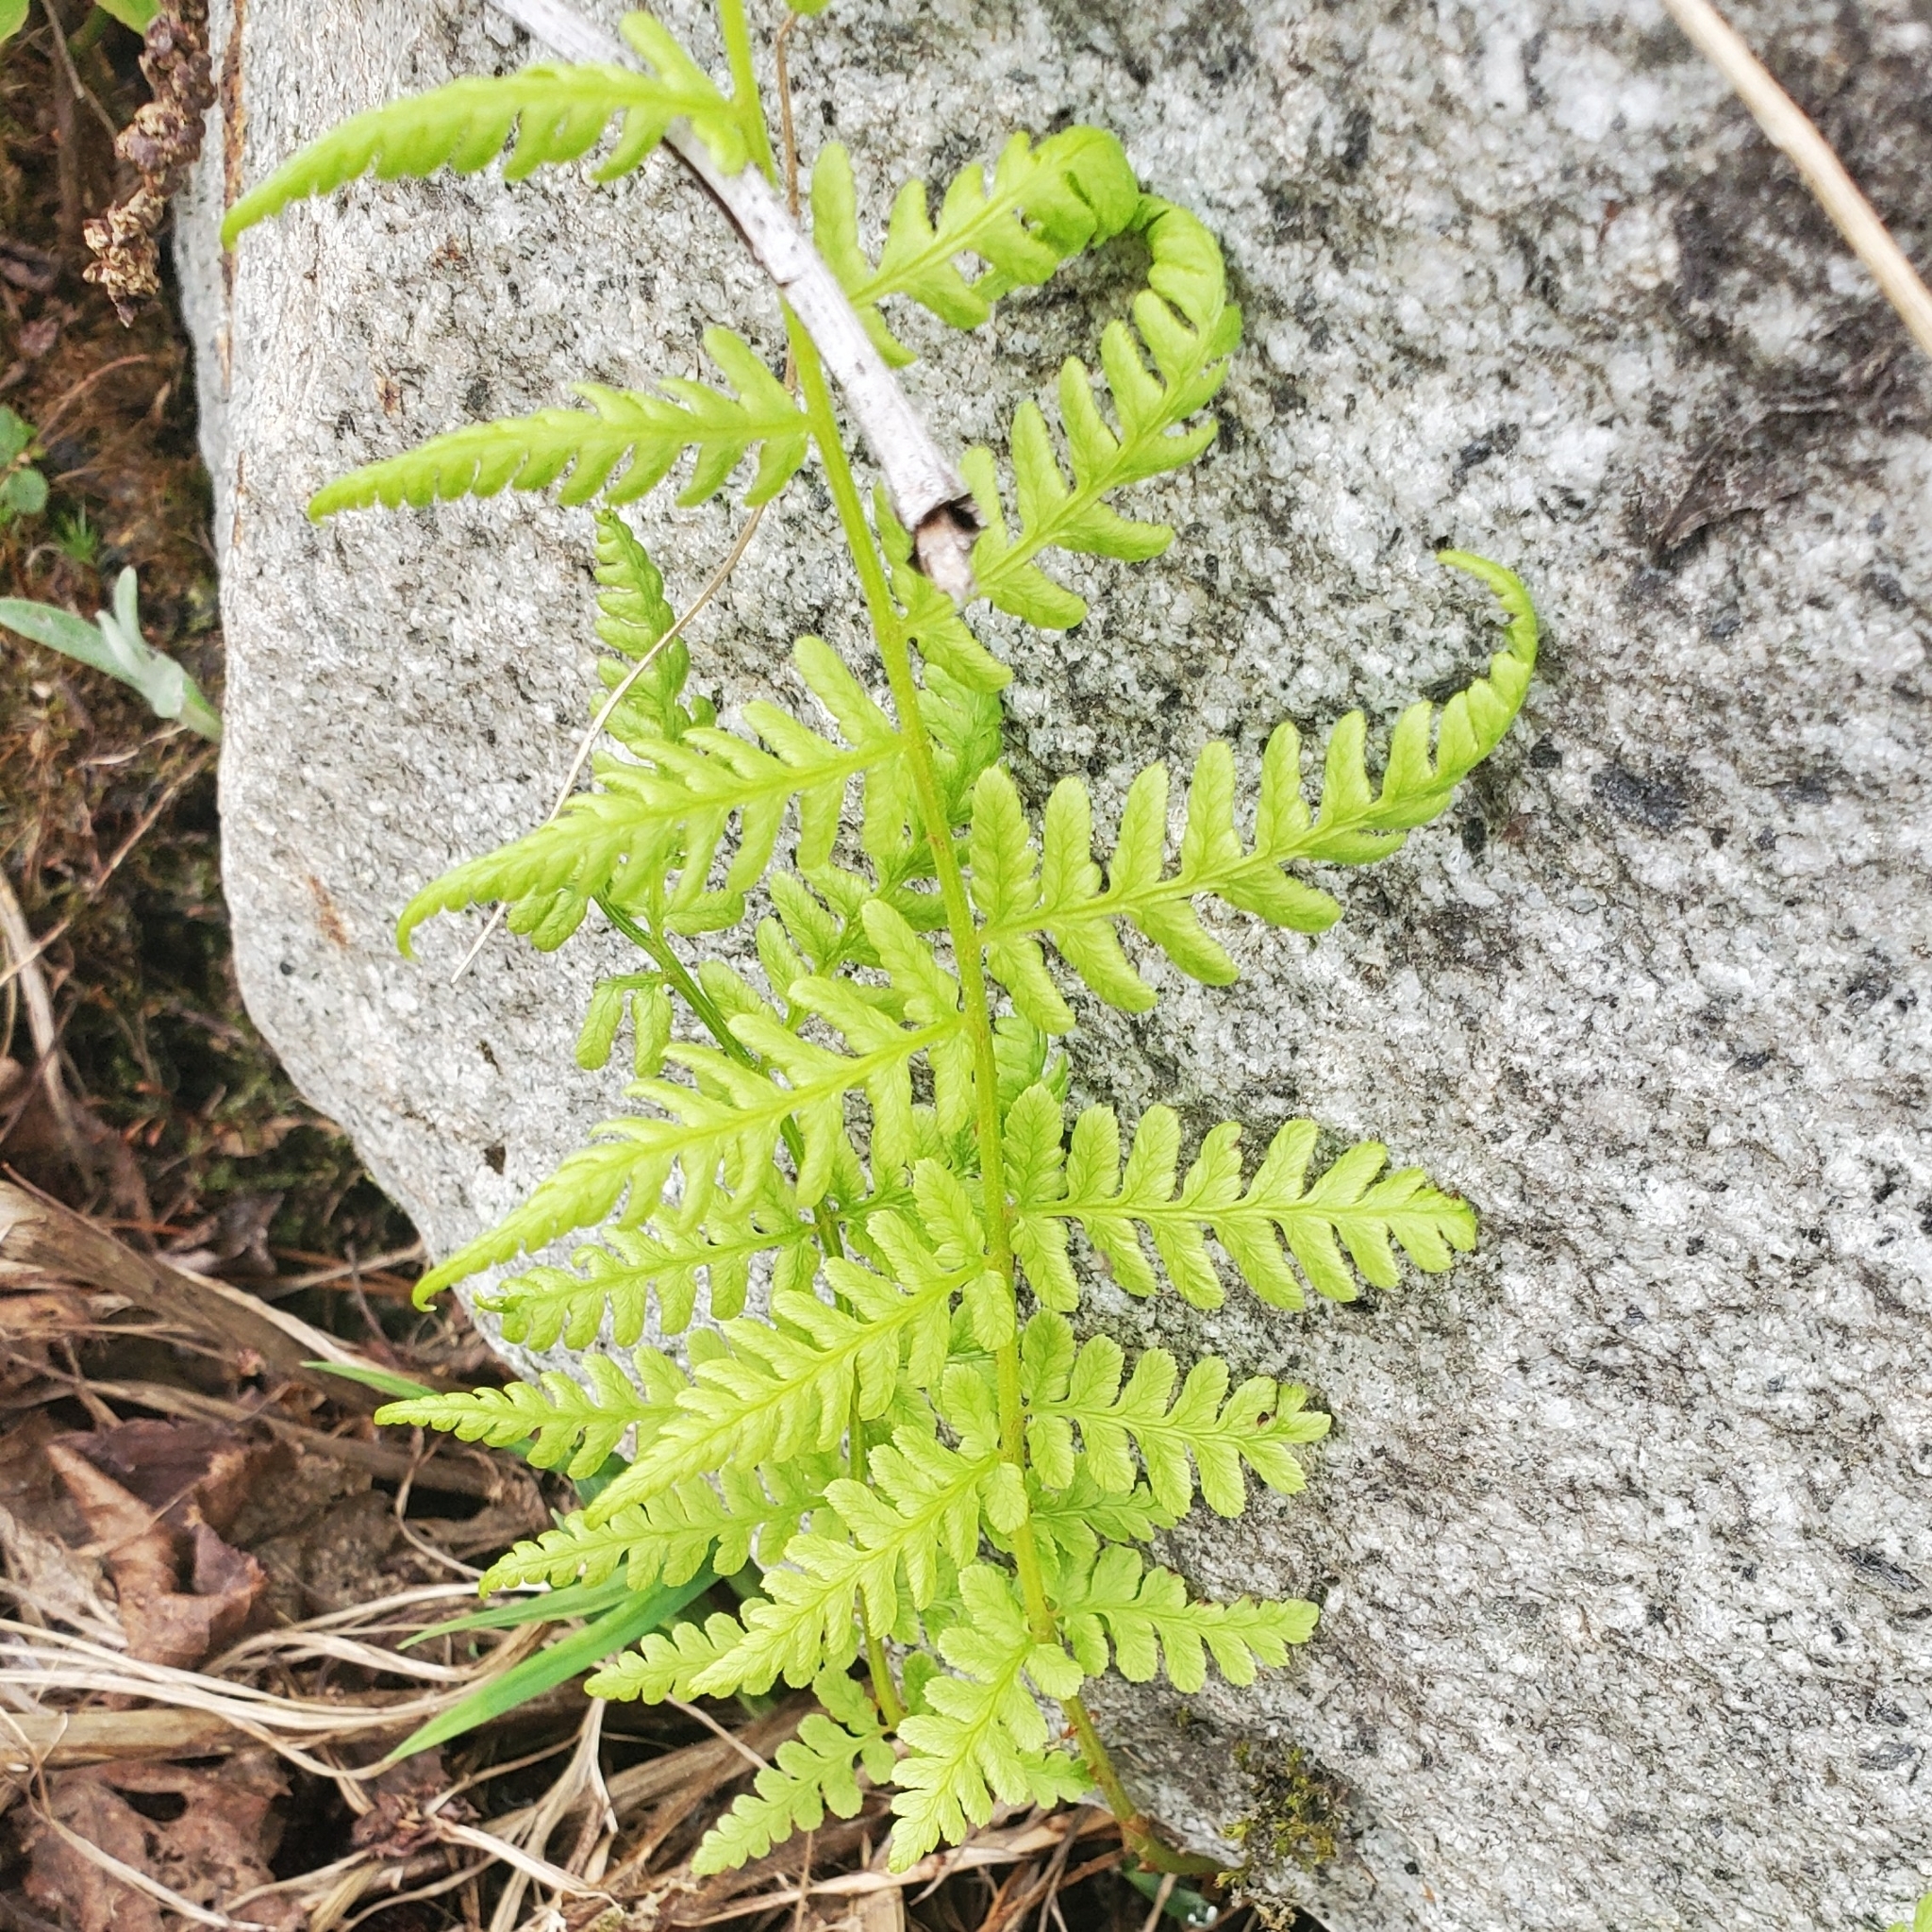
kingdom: Plantae
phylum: Tracheophyta
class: Polypodiopsida
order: Polypodiales
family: Athyriaceae
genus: Athyrium
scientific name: Athyrium filix-femina
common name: Lady fern
